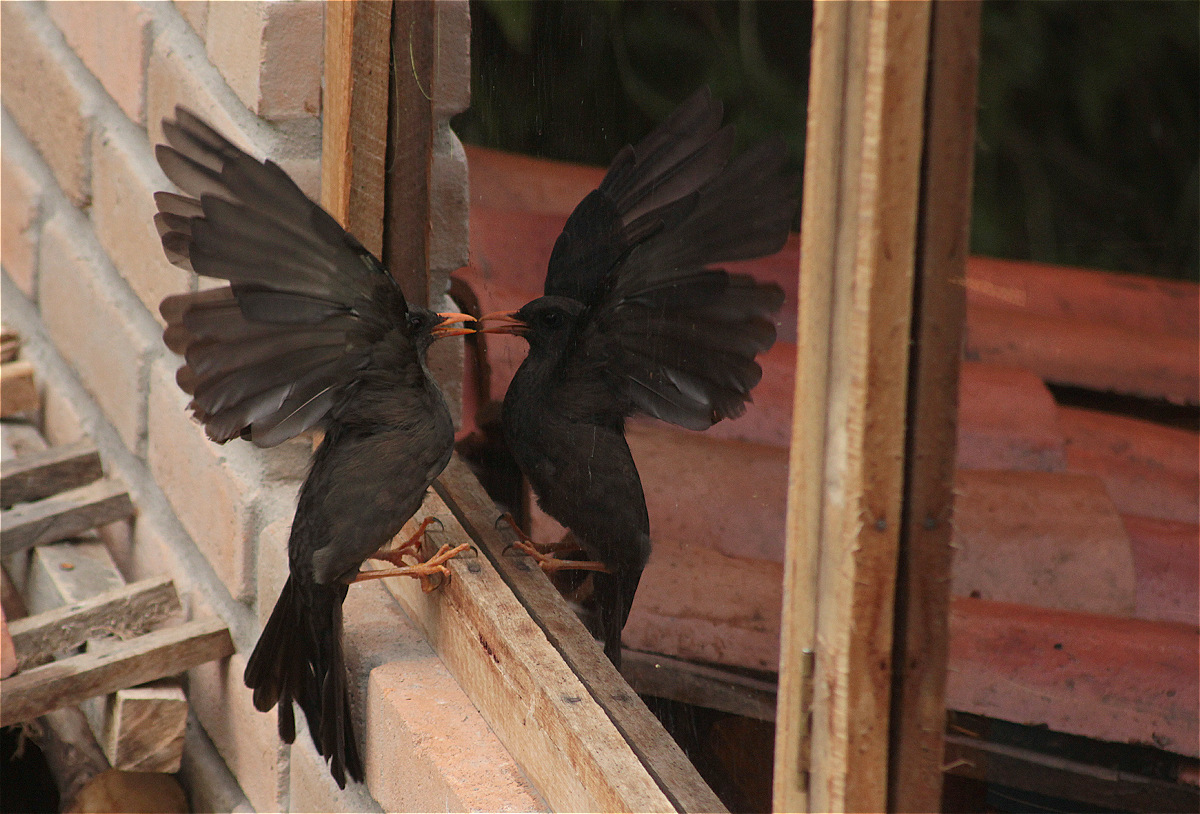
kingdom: Animalia
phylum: Chordata
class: Aves
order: Passeriformes
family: Turdidae
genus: Turdus
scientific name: Turdus fuscater
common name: Great thrush
